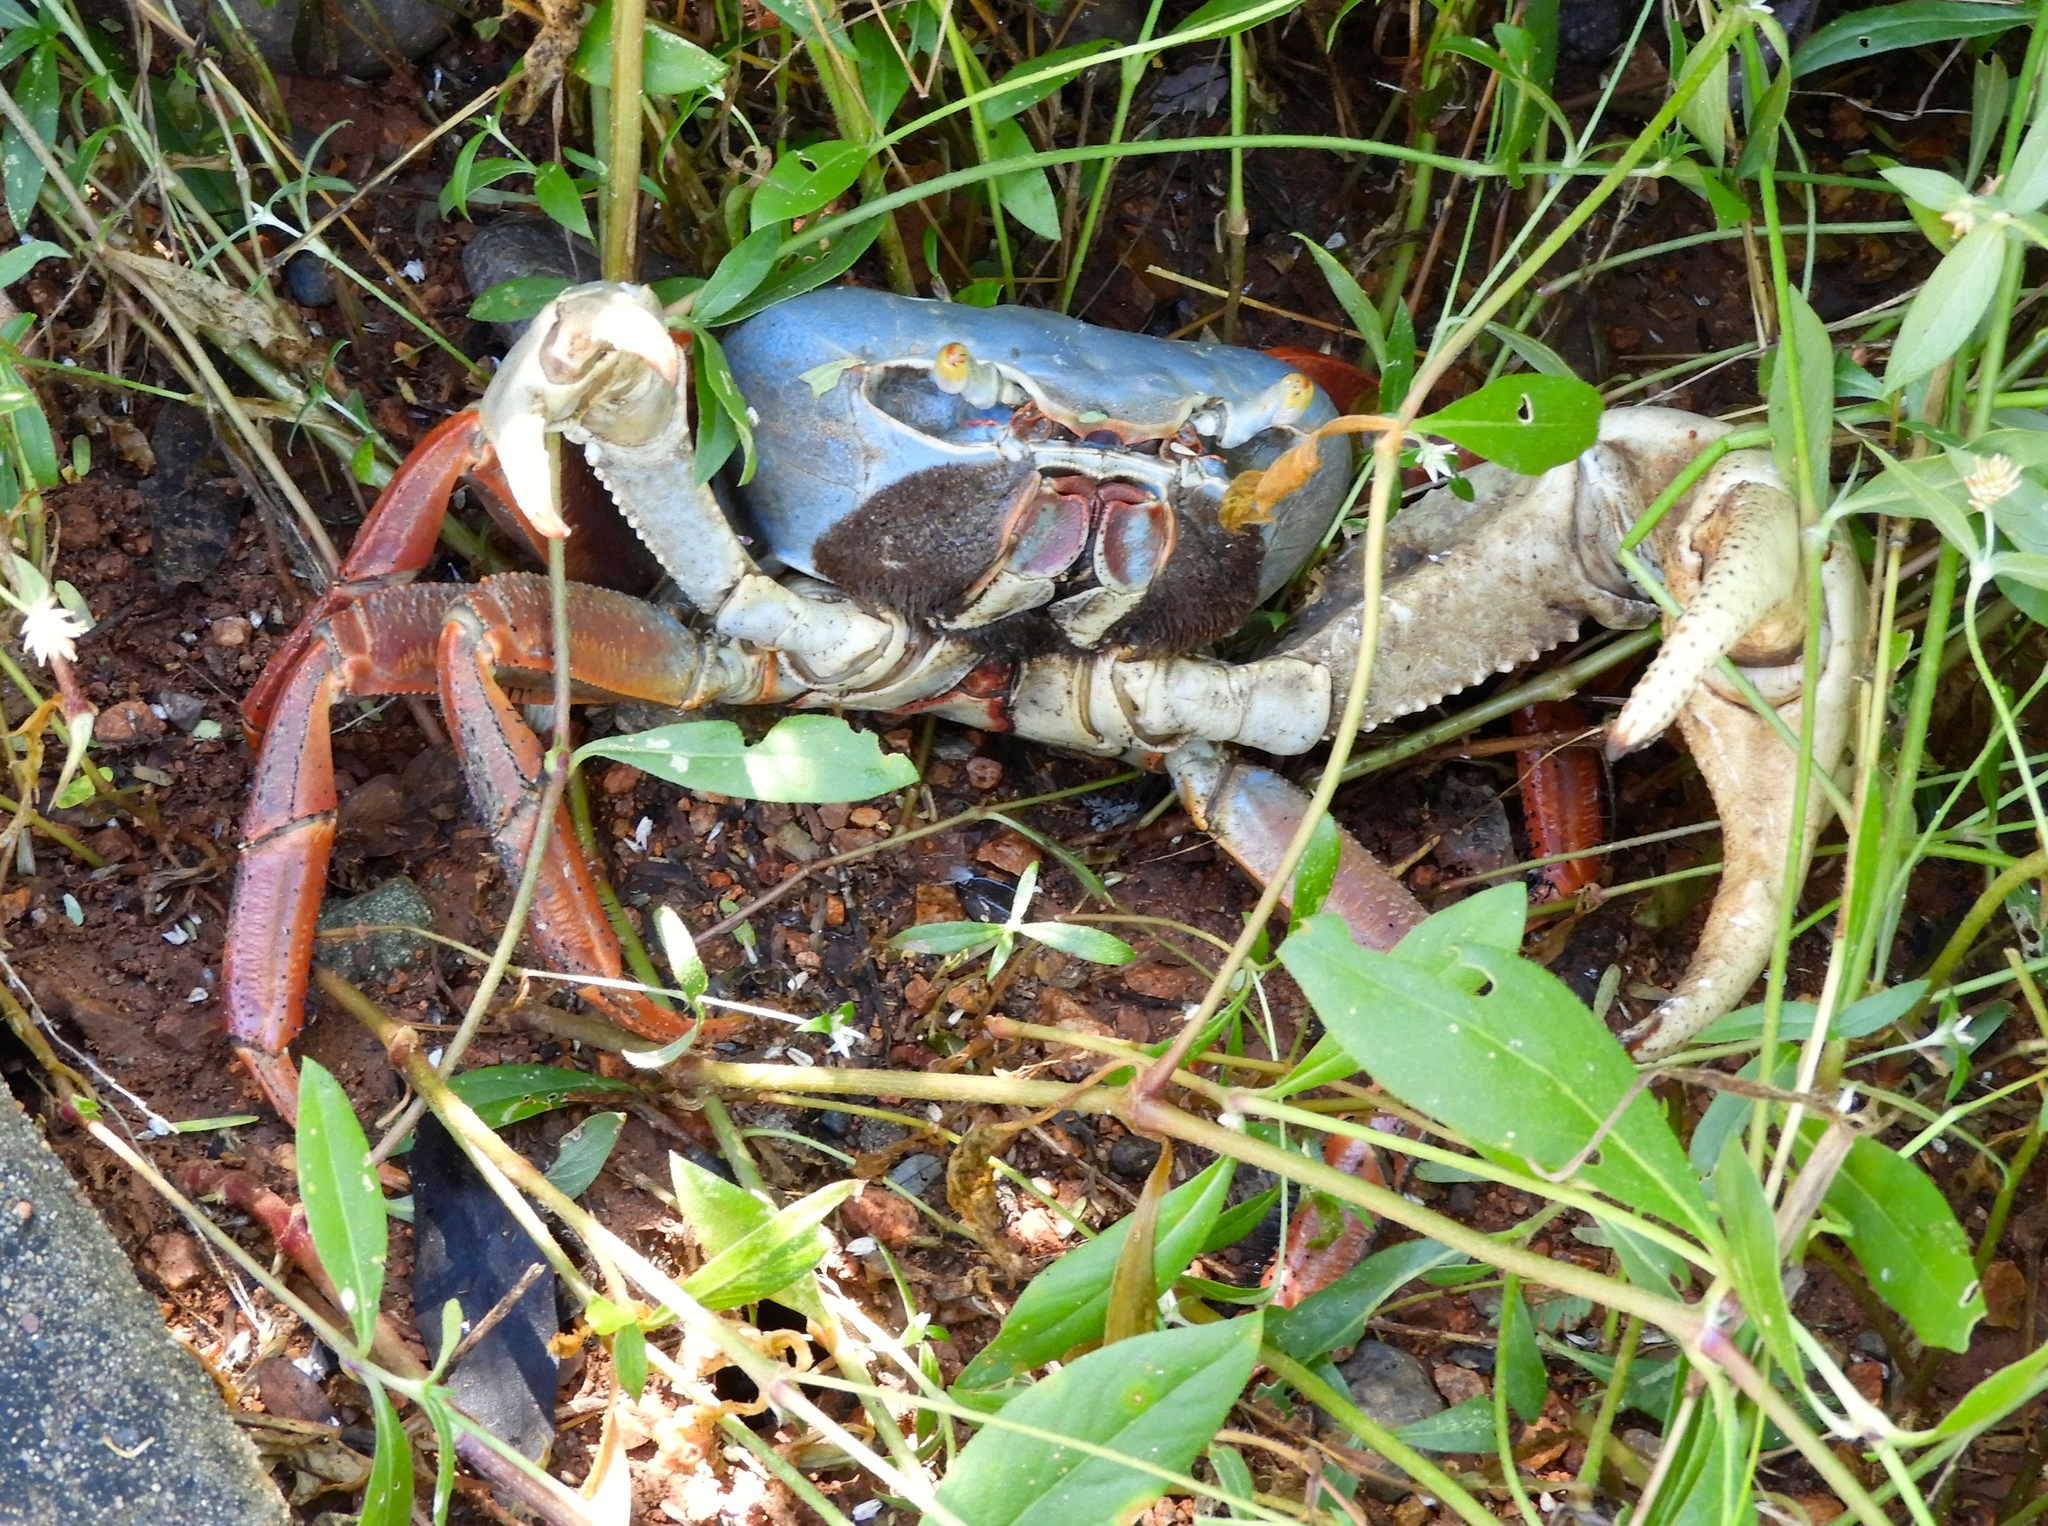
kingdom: Animalia
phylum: Arthropoda
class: Malacostraca
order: Decapoda
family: Gecarcinidae
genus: Cardisoma
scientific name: Cardisoma crassum
